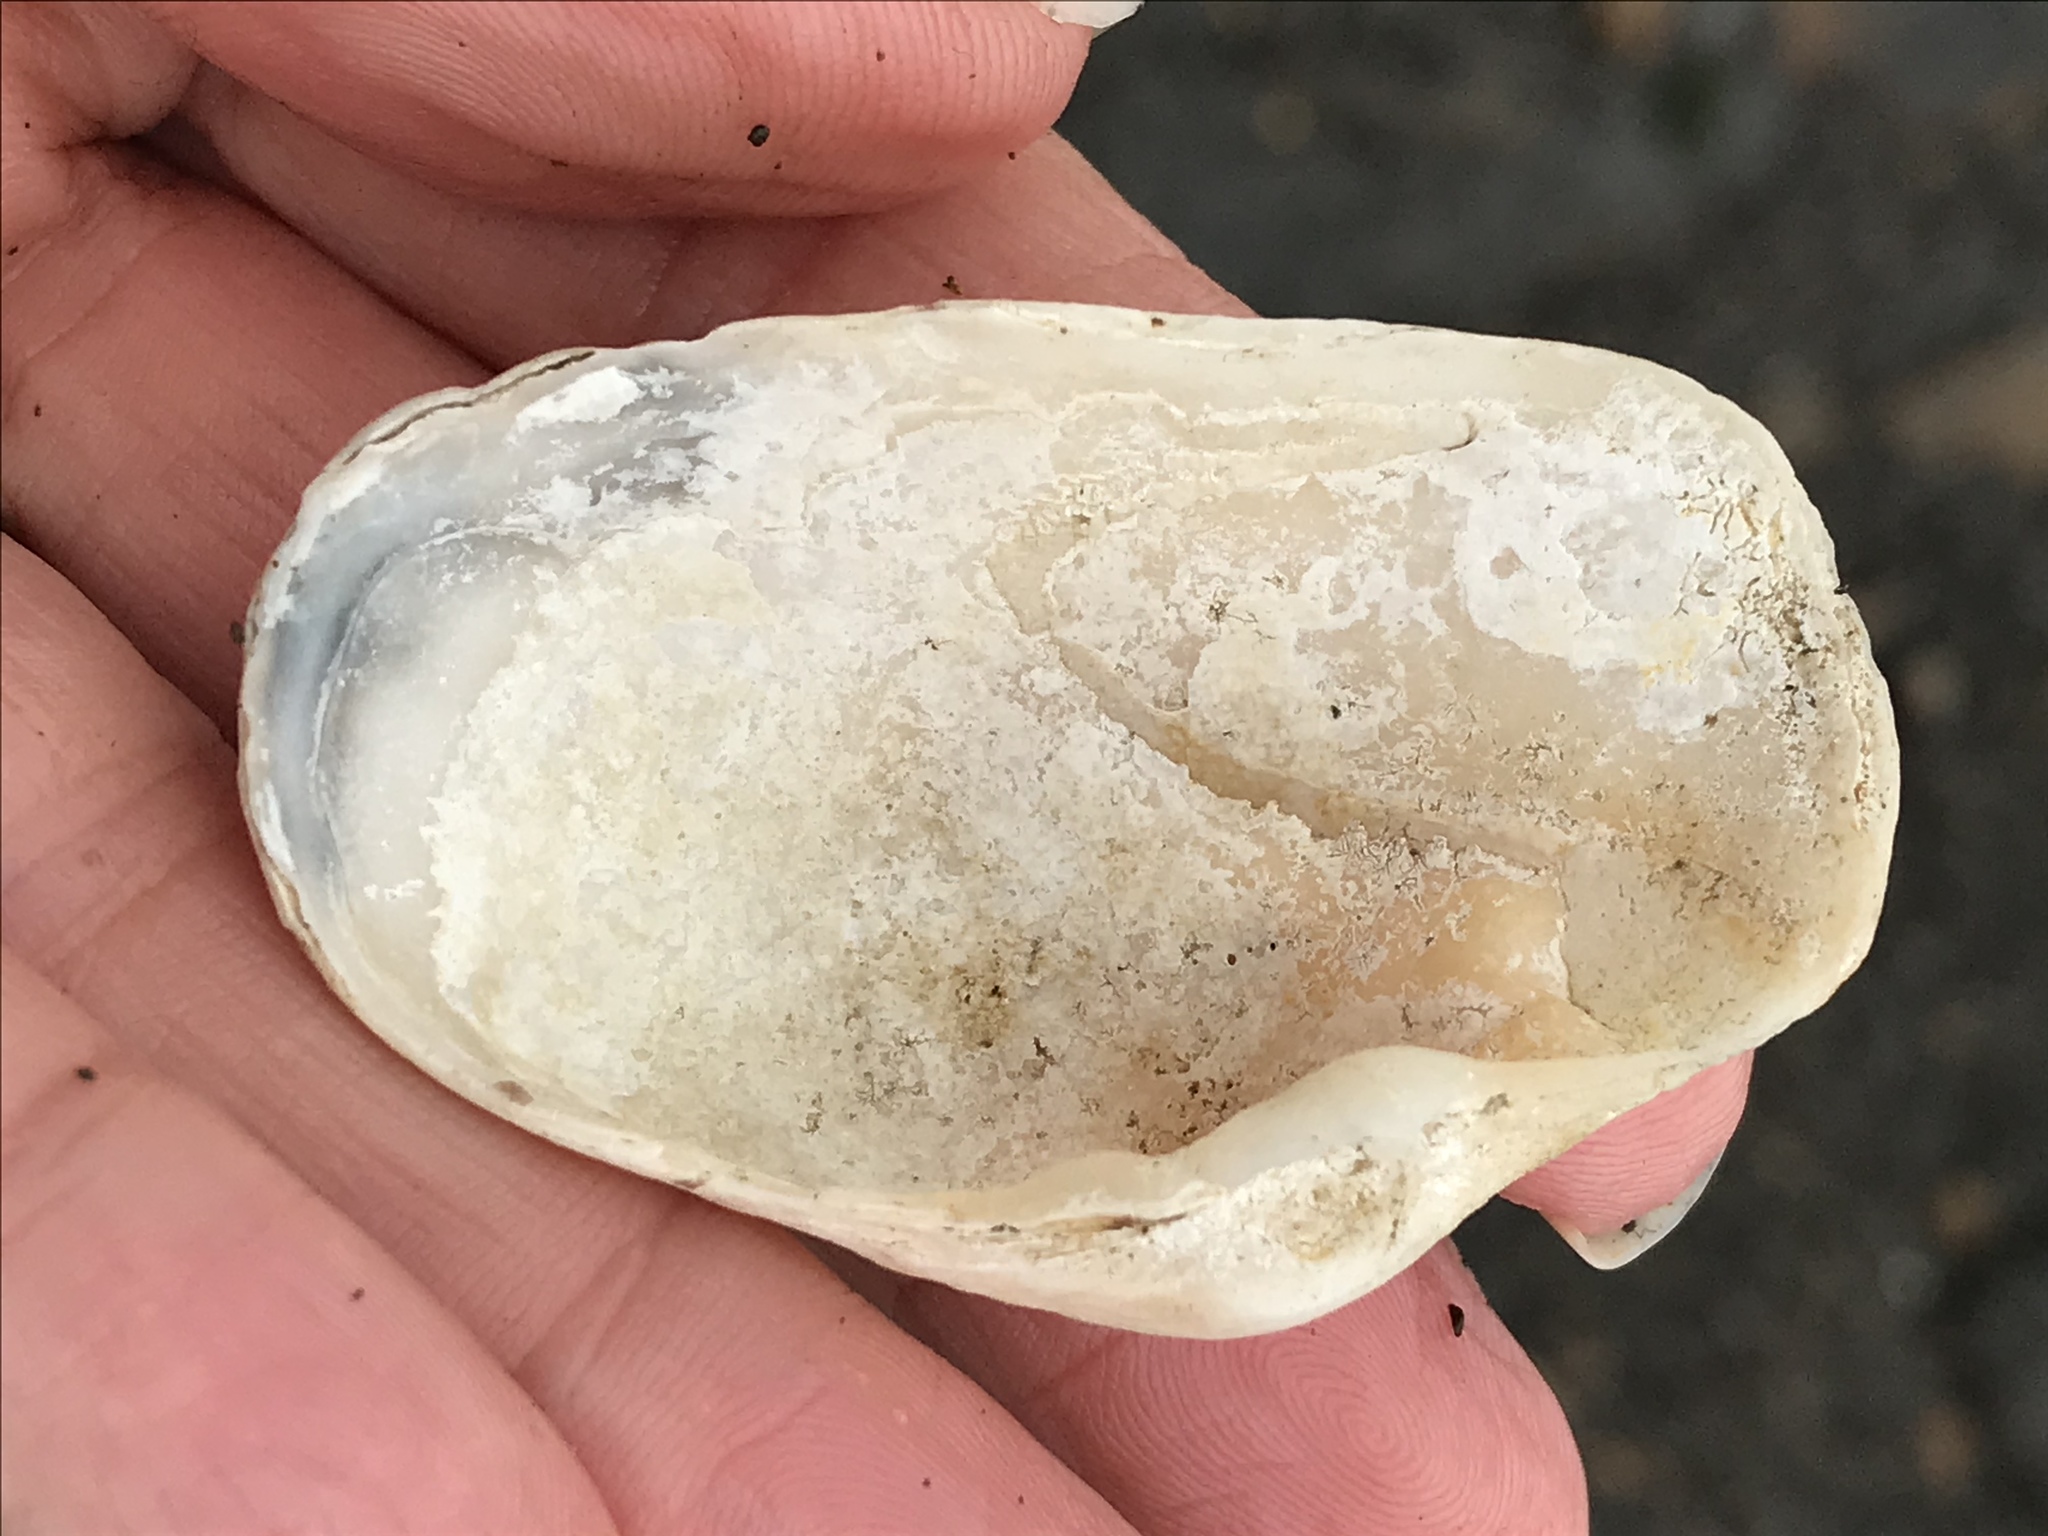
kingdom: Animalia
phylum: Mollusca
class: Bivalvia
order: Myida
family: Myidae
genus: Platyodon
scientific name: Platyodon cancellatus
